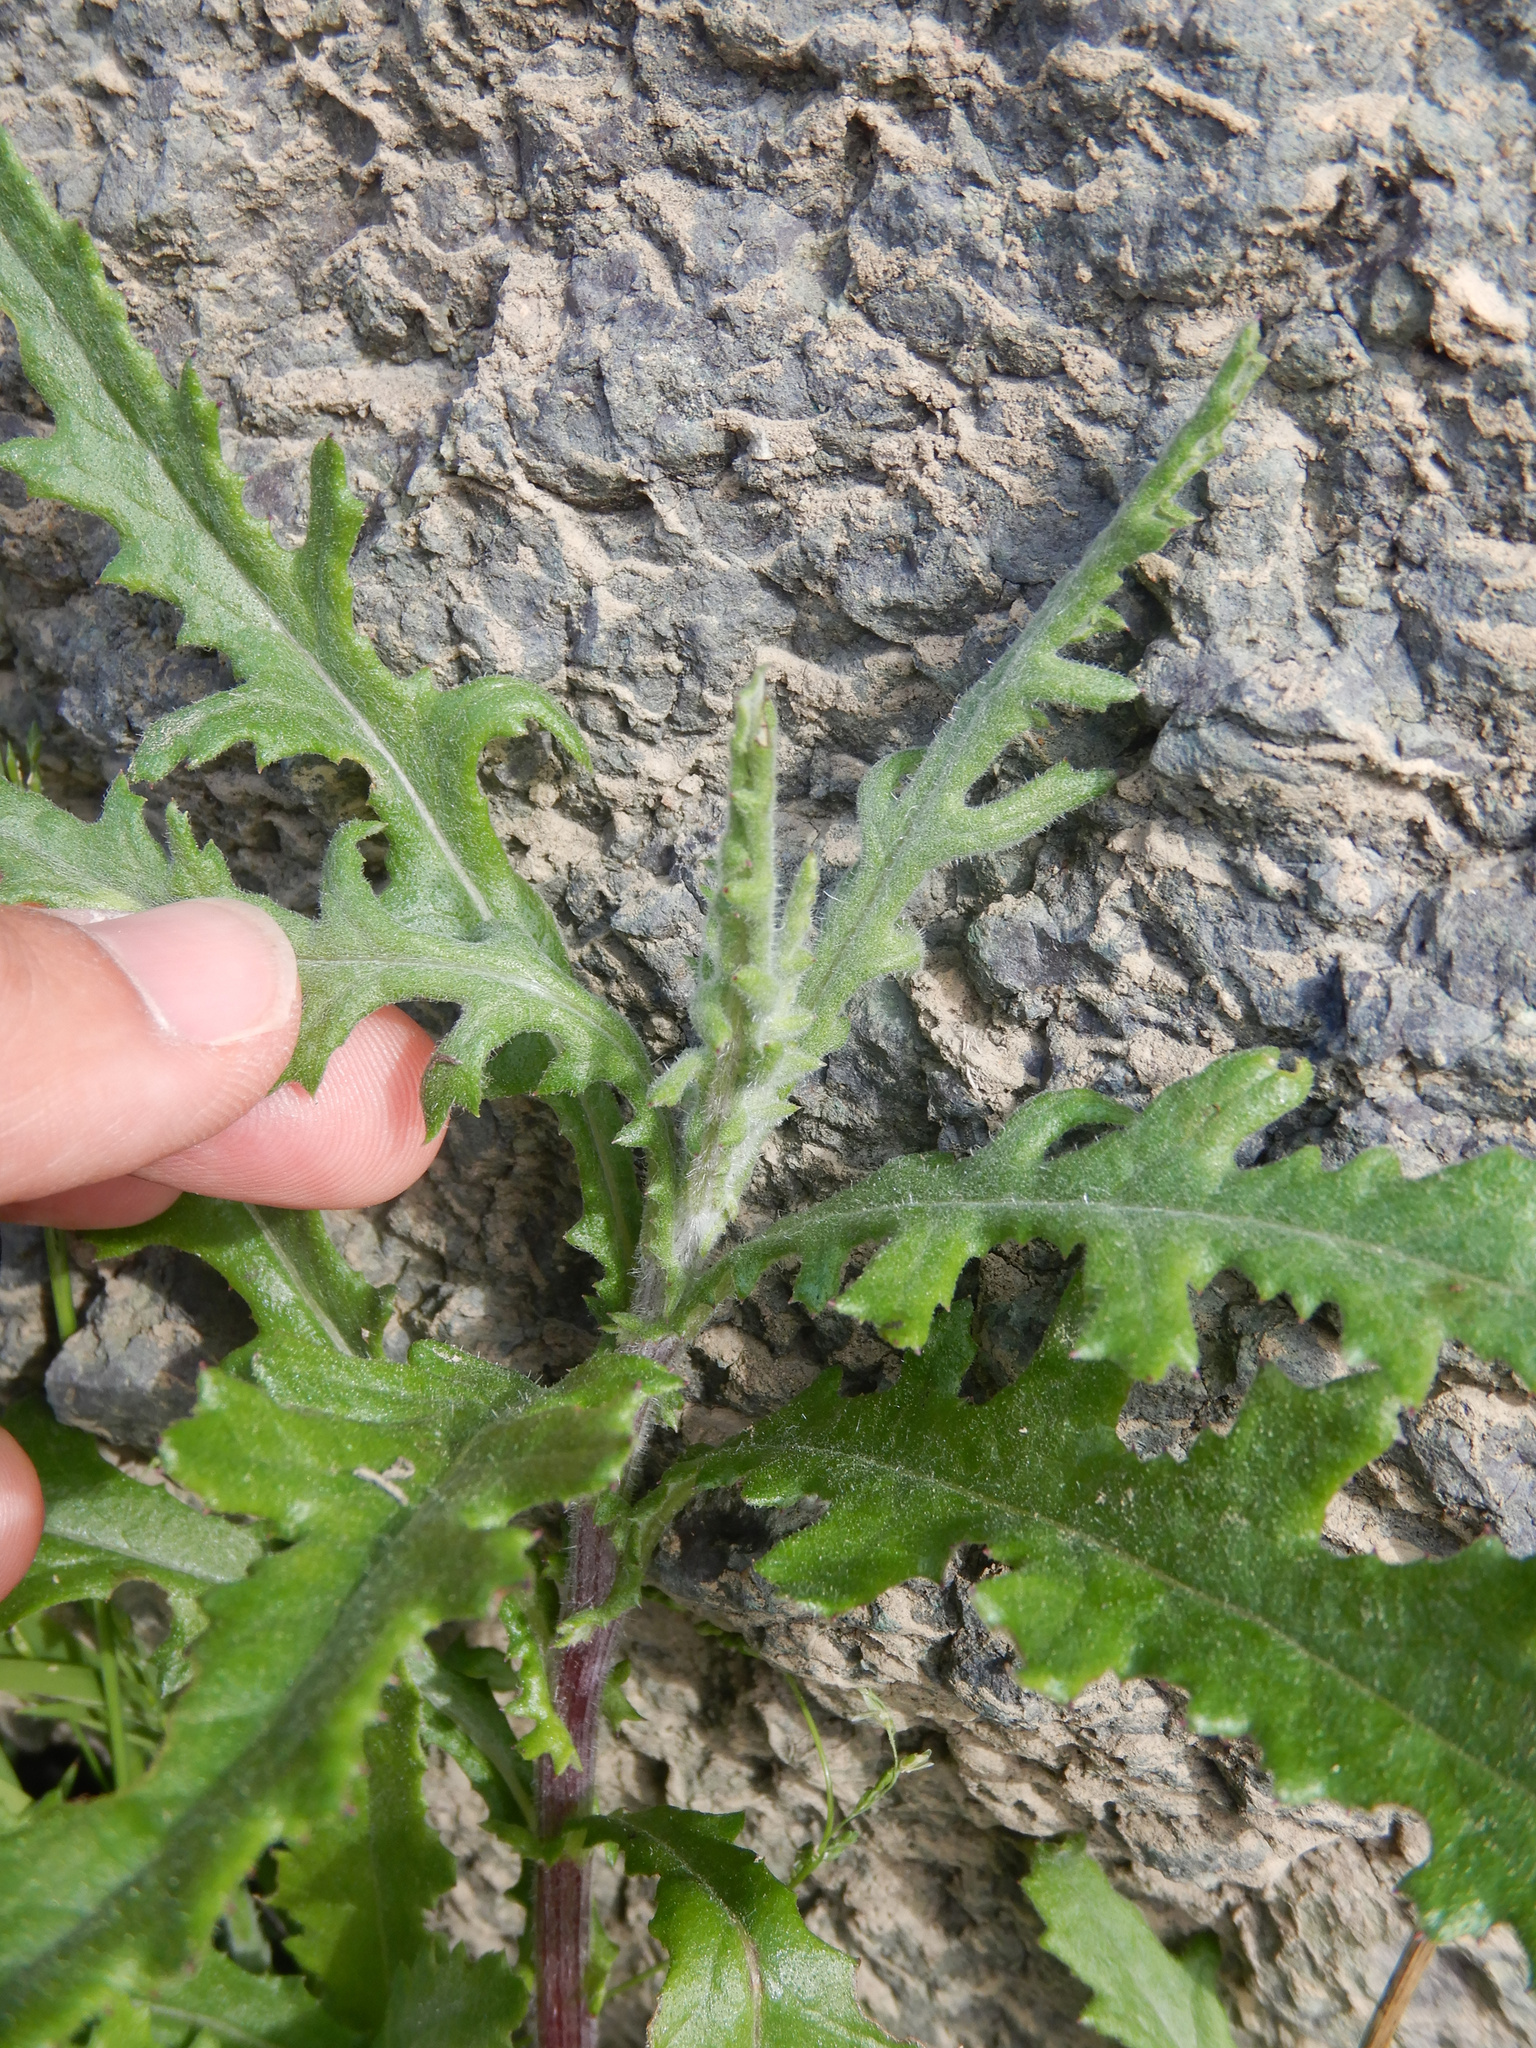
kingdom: Plantae
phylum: Tracheophyta
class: Magnoliopsida
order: Asterales
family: Asteraceae
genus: Senecio
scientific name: Senecio glomeratus
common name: Cutleaf burnweed
